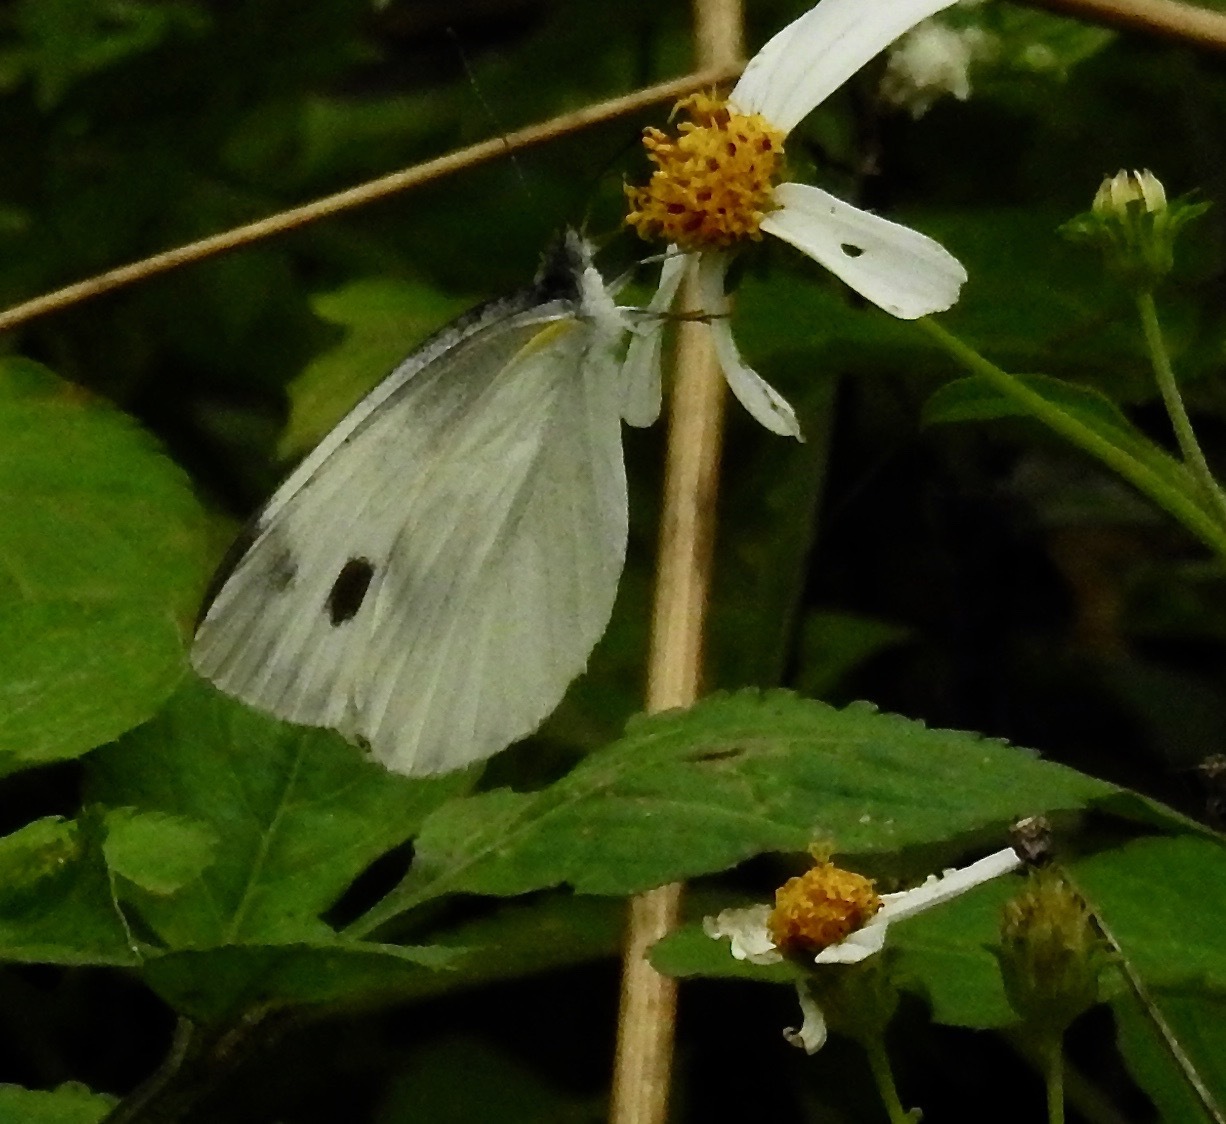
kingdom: Animalia
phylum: Arthropoda
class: Insecta
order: Lepidoptera
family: Pieridae
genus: Pieris
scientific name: Pieris canidia
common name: Indian cabbage white
